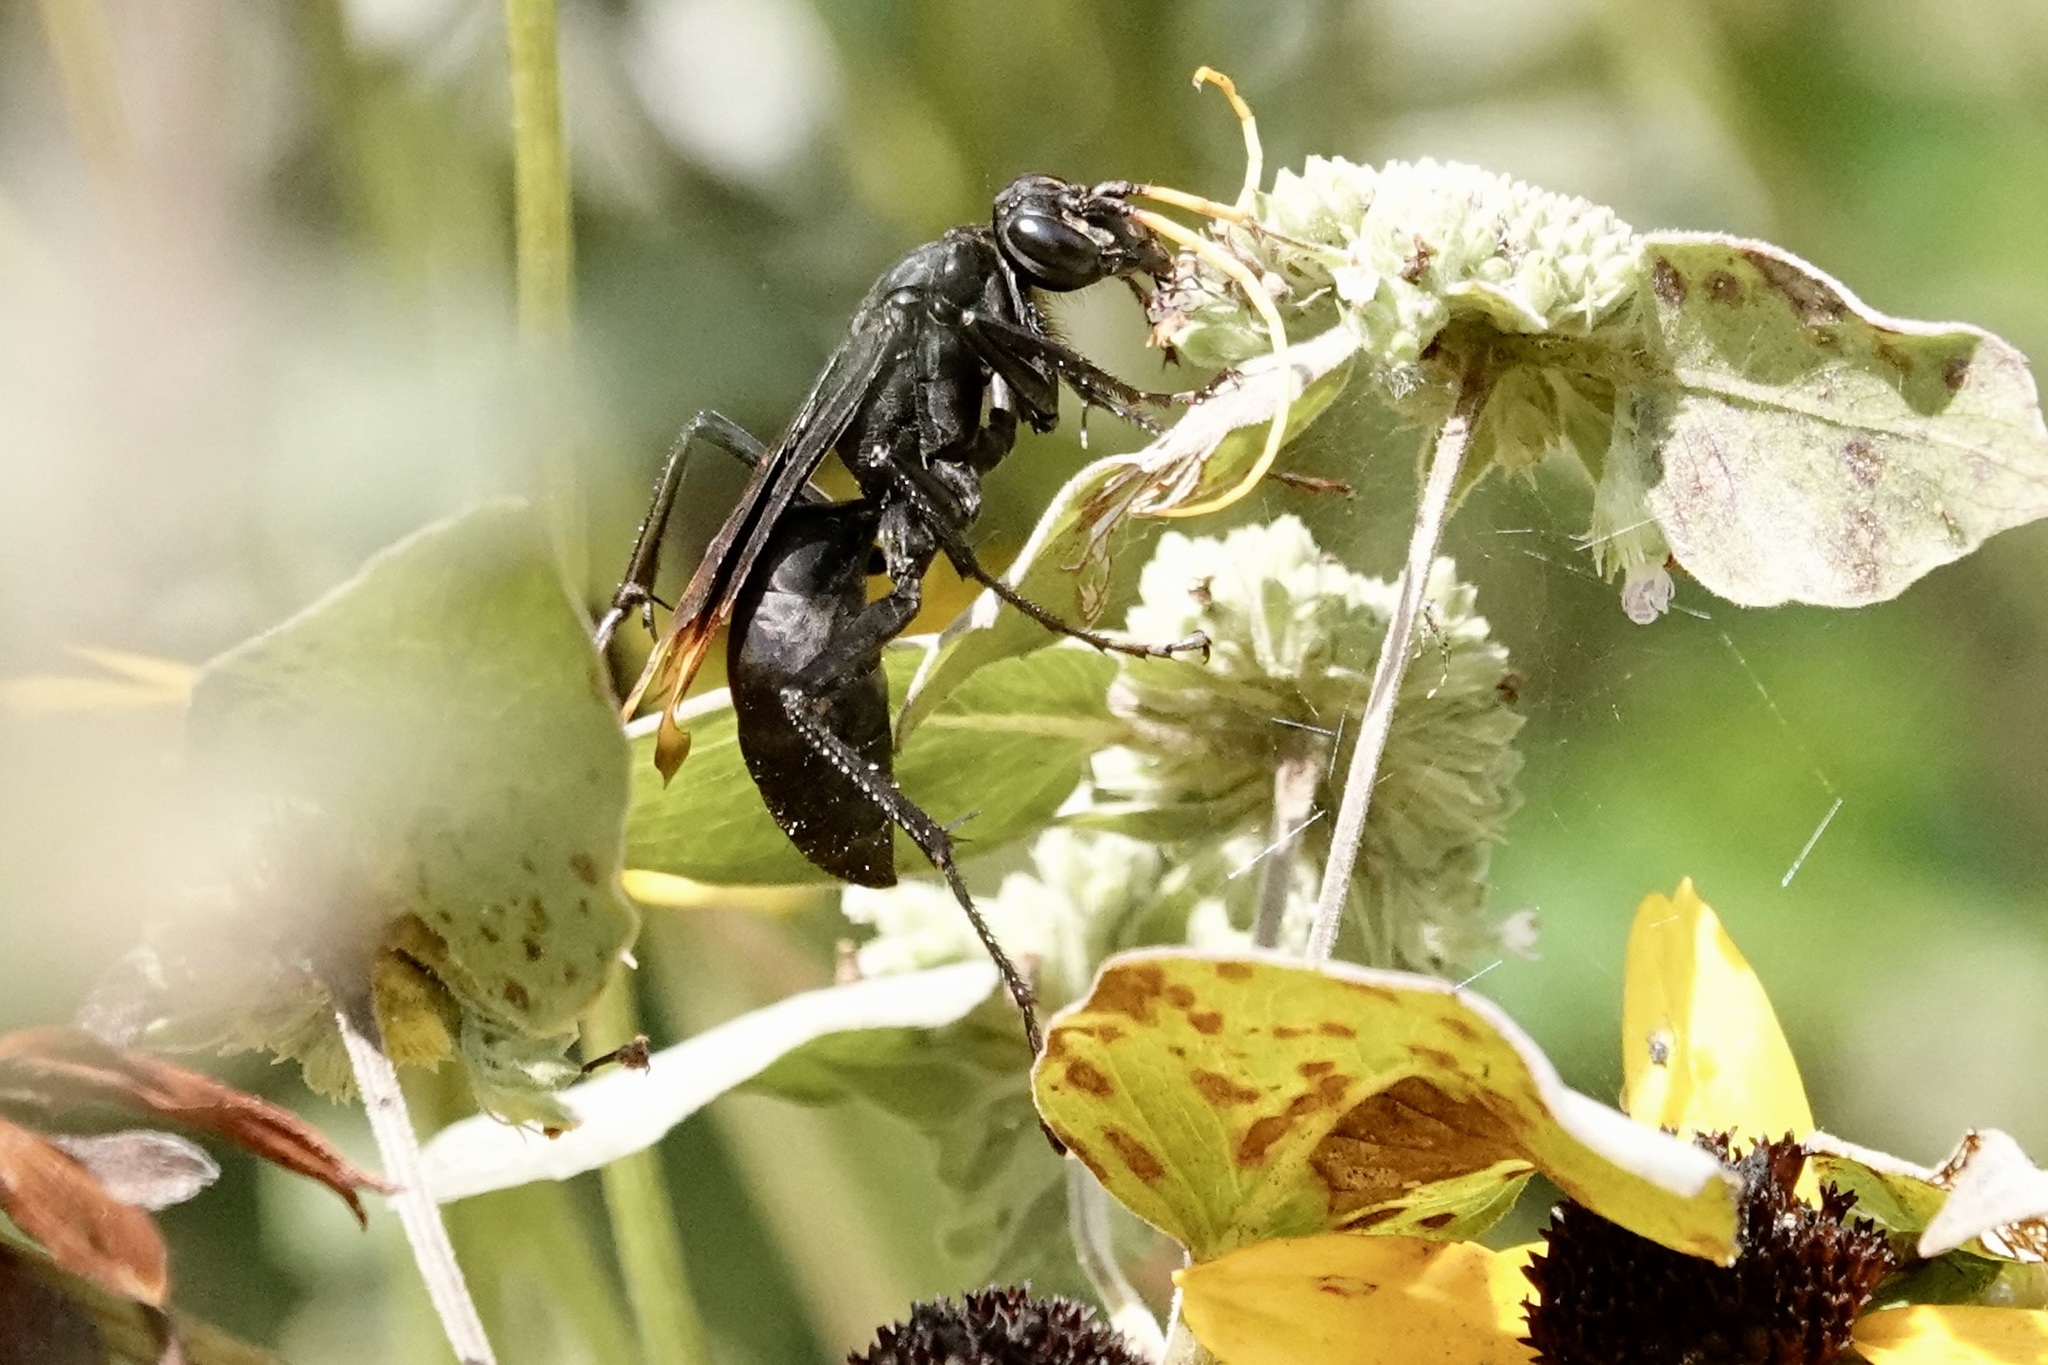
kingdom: Animalia
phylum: Arthropoda
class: Insecta
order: Hymenoptera
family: Pompilidae
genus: Entypus
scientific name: Entypus unifasciatus
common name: Eastern tawny-horned spider wasp
